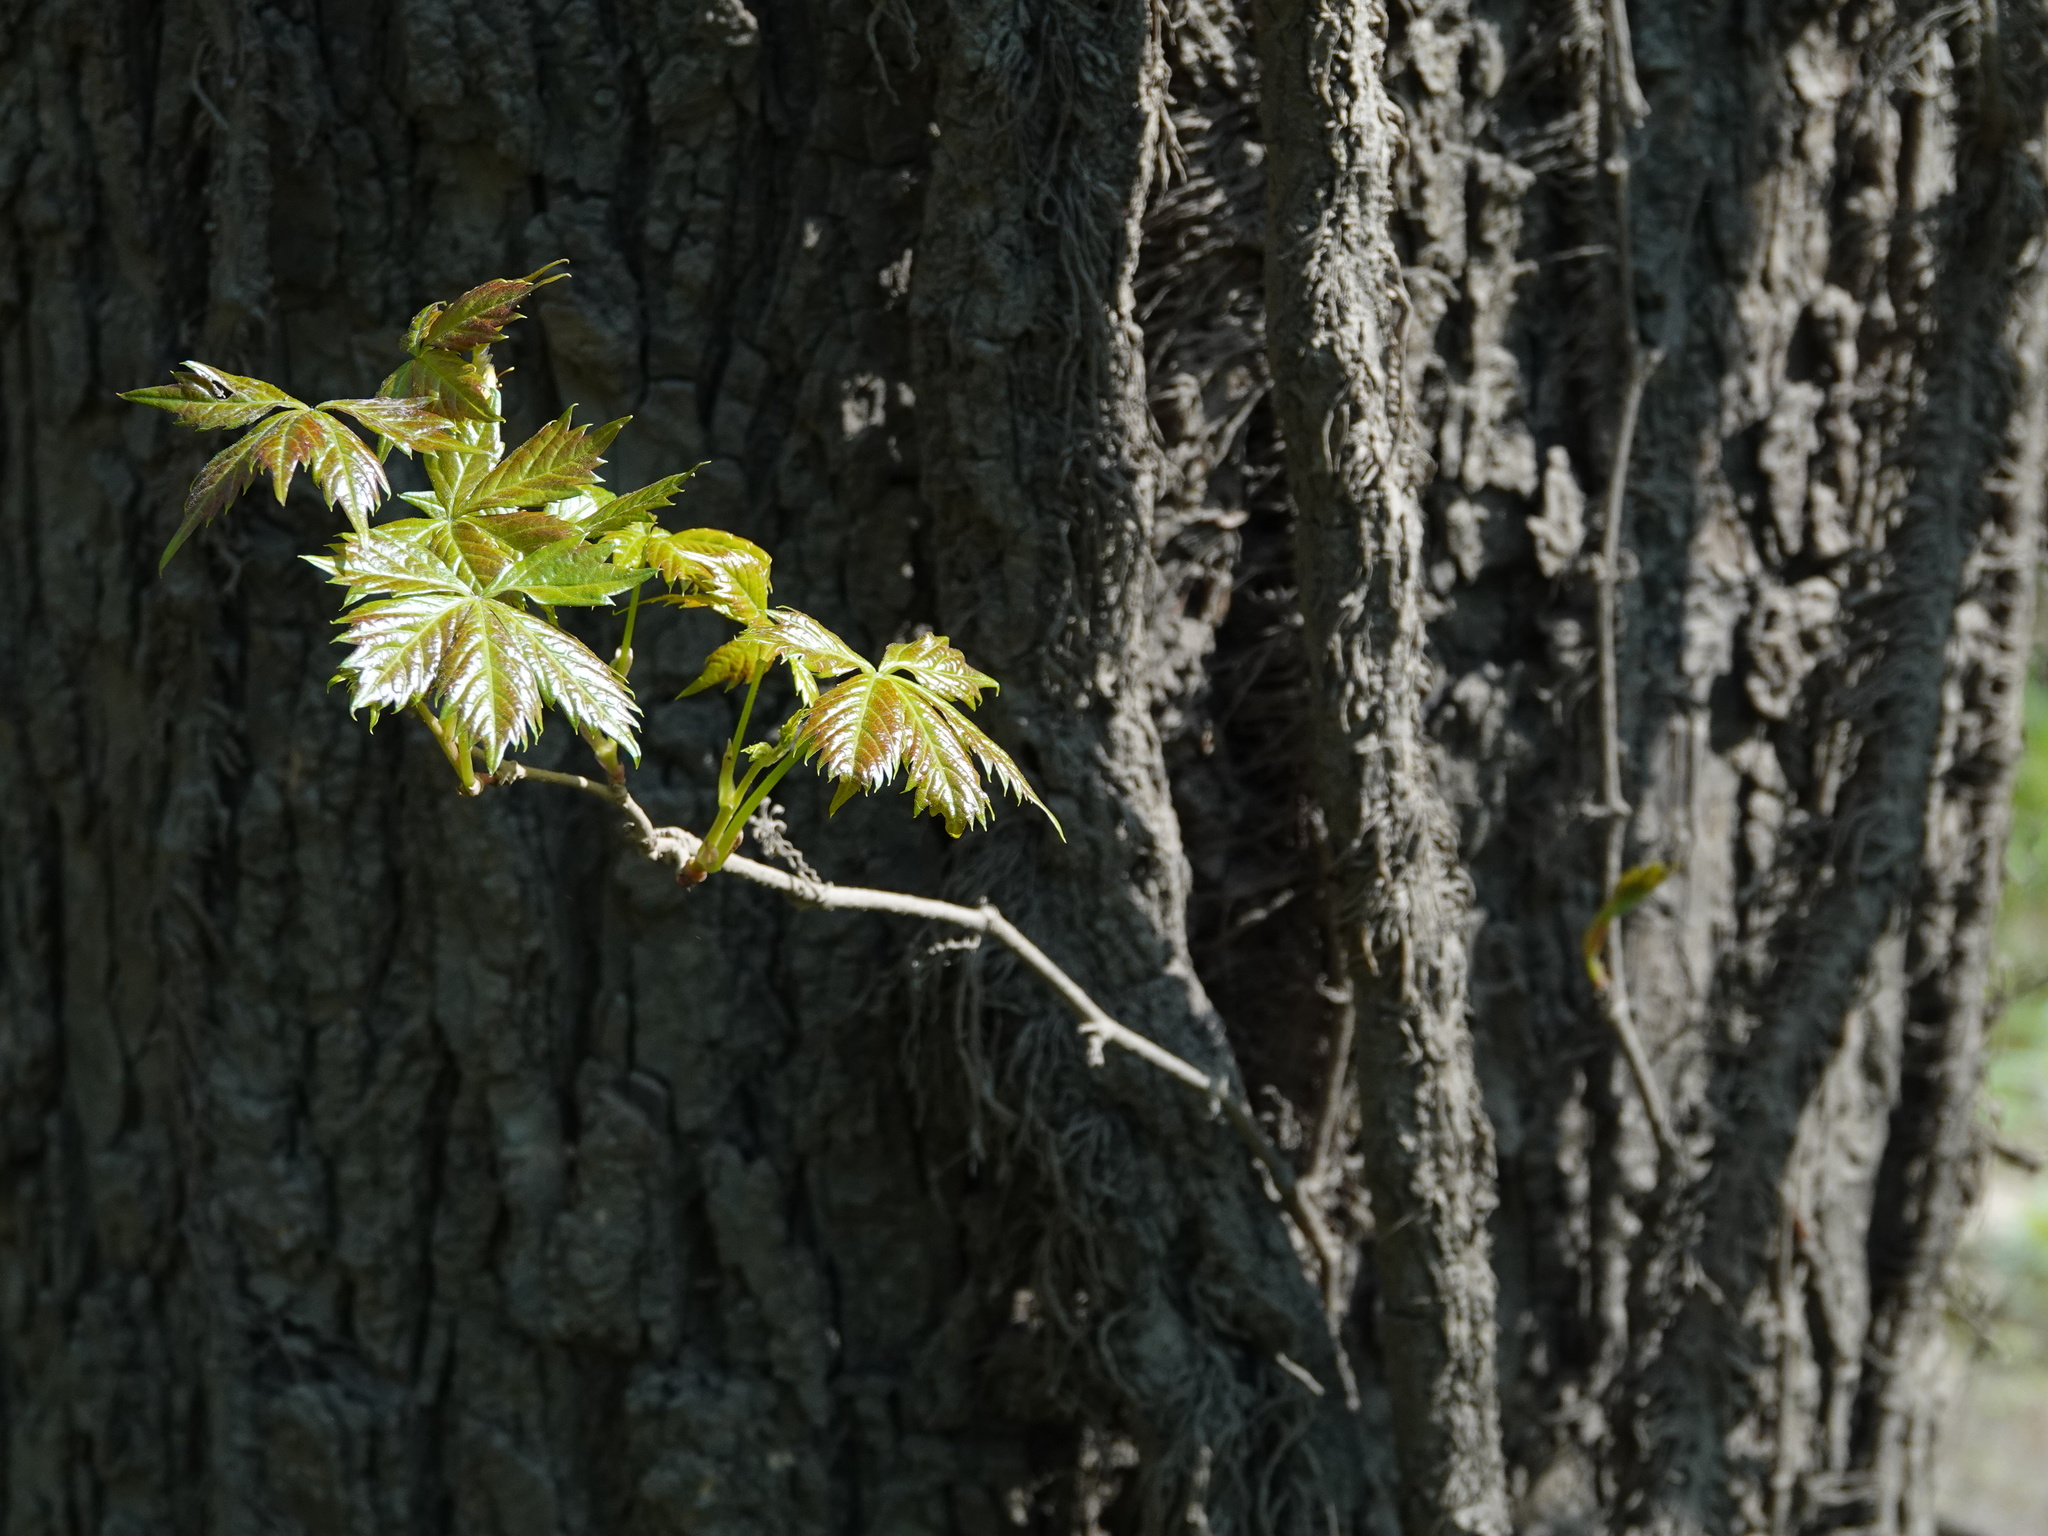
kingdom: Plantae
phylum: Tracheophyta
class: Magnoliopsida
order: Vitales
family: Vitaceae
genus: Parthenocissus
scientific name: Parthenocissus quinquefolia
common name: Virginia-creeper
